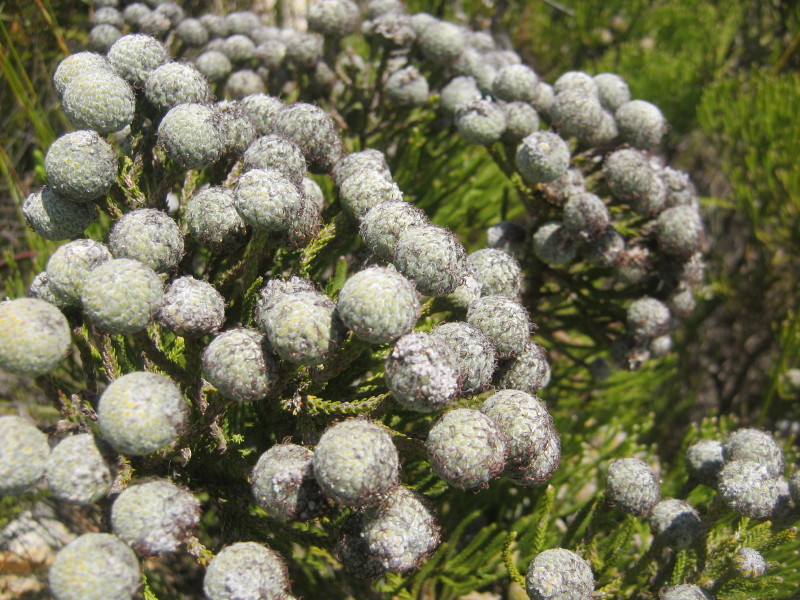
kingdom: Plantae
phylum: Tracheophyta
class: Magnoliopsida
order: Bruniales
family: Bruniaceae
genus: Brunia
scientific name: Brunia noduliflora
